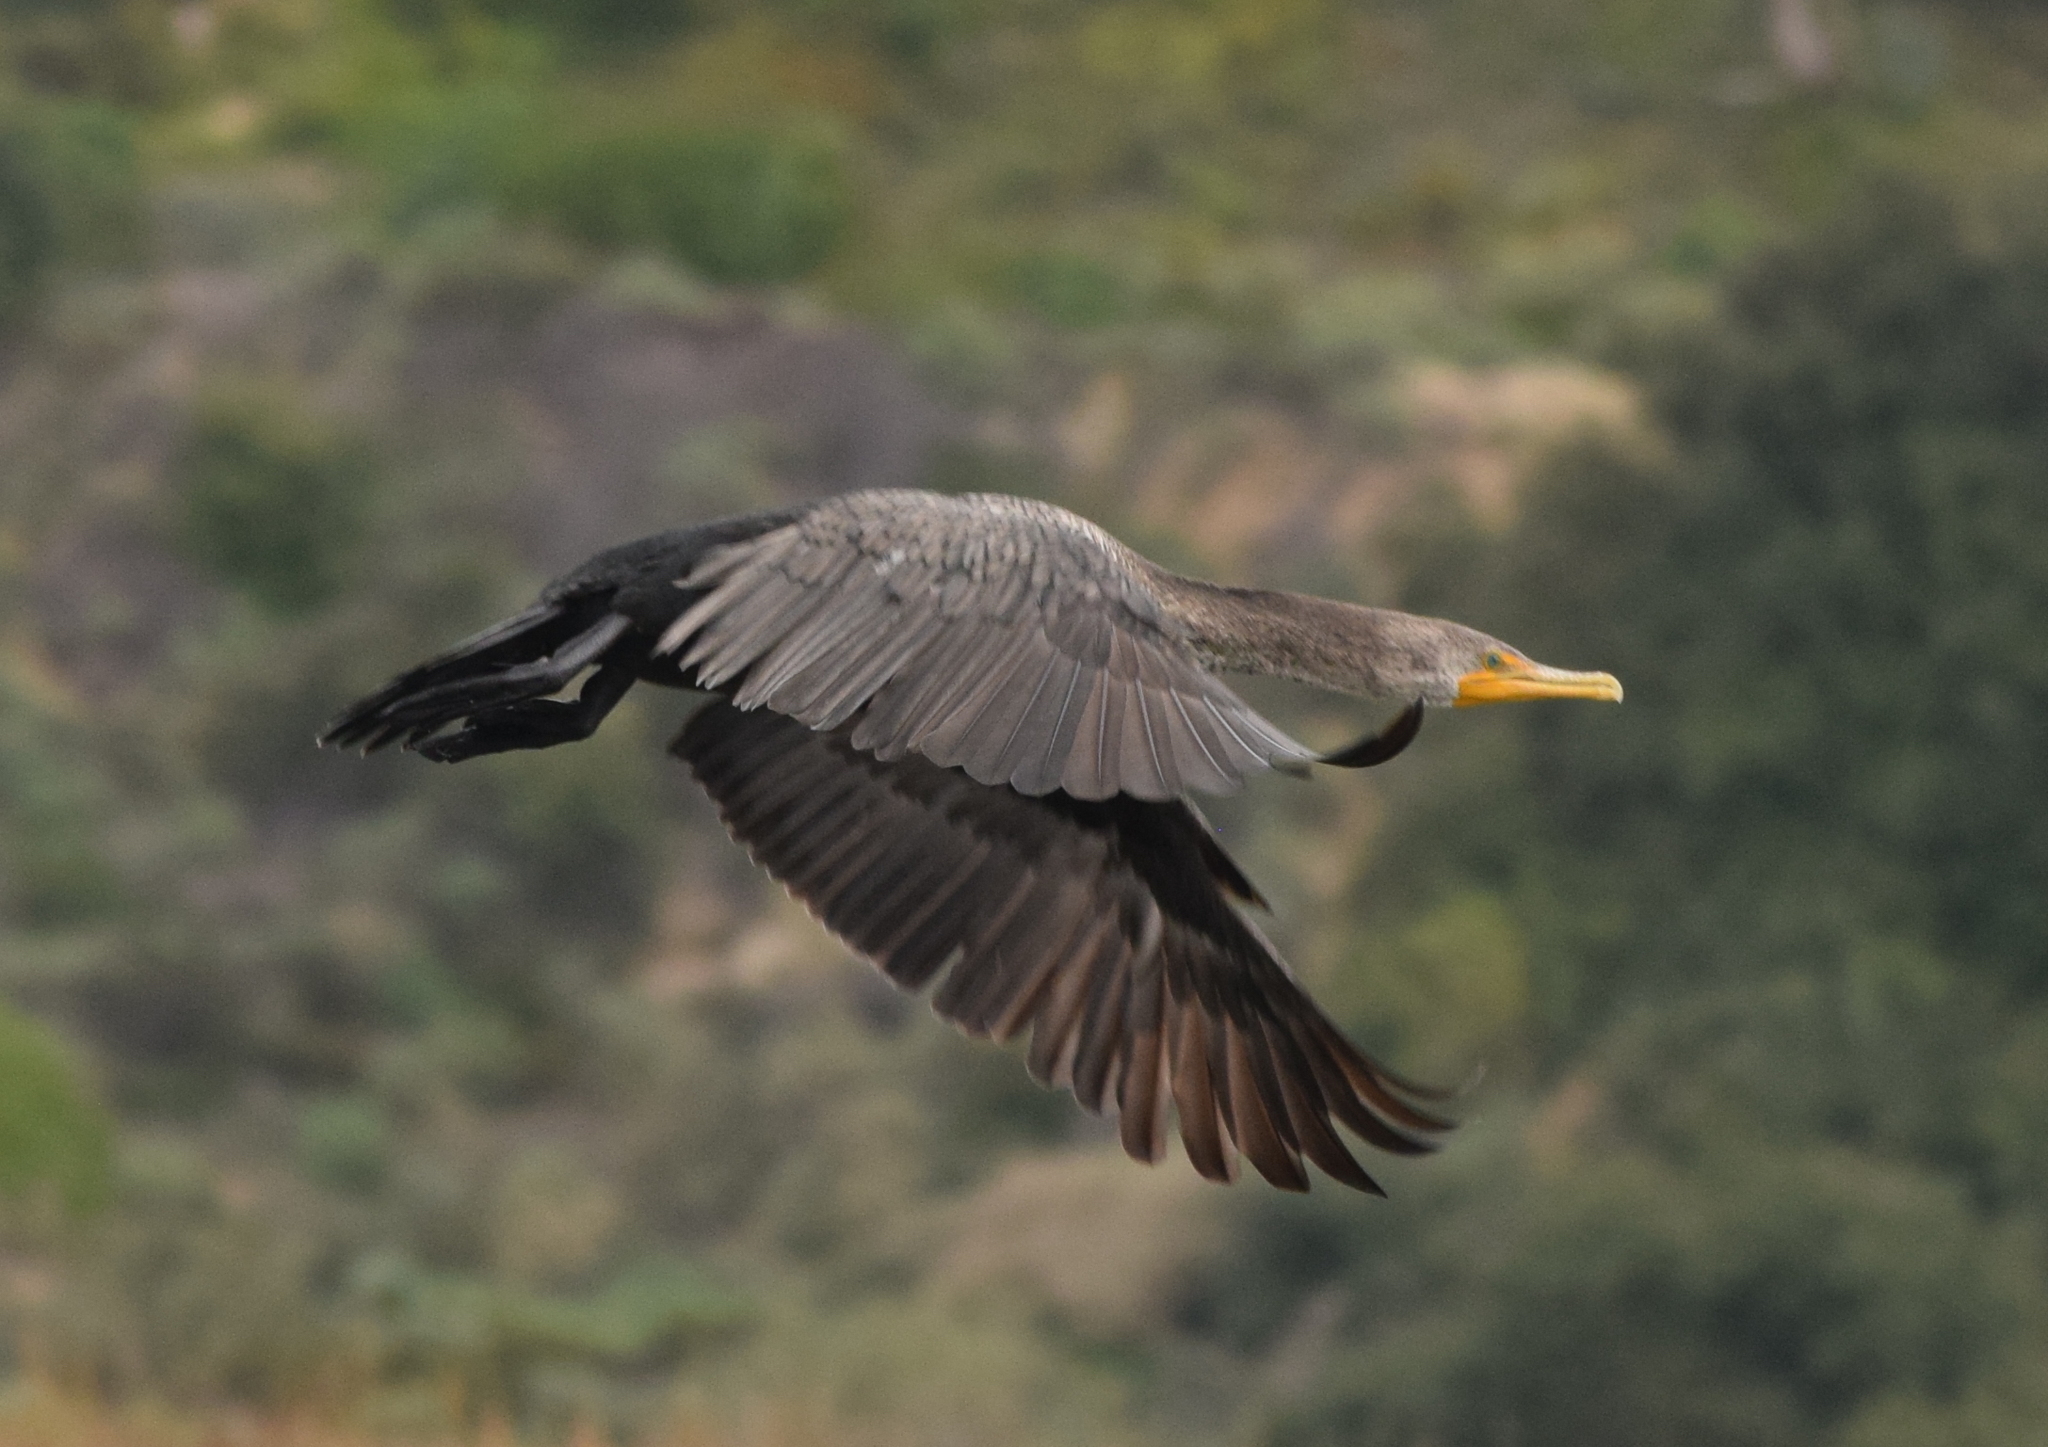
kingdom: Animalia
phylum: Chordata
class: Aves
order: Suliformes
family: Phalacrocoracidae
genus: Phalacrocorax
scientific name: Phalacrocorax auritus
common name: Double-crested cormorant
